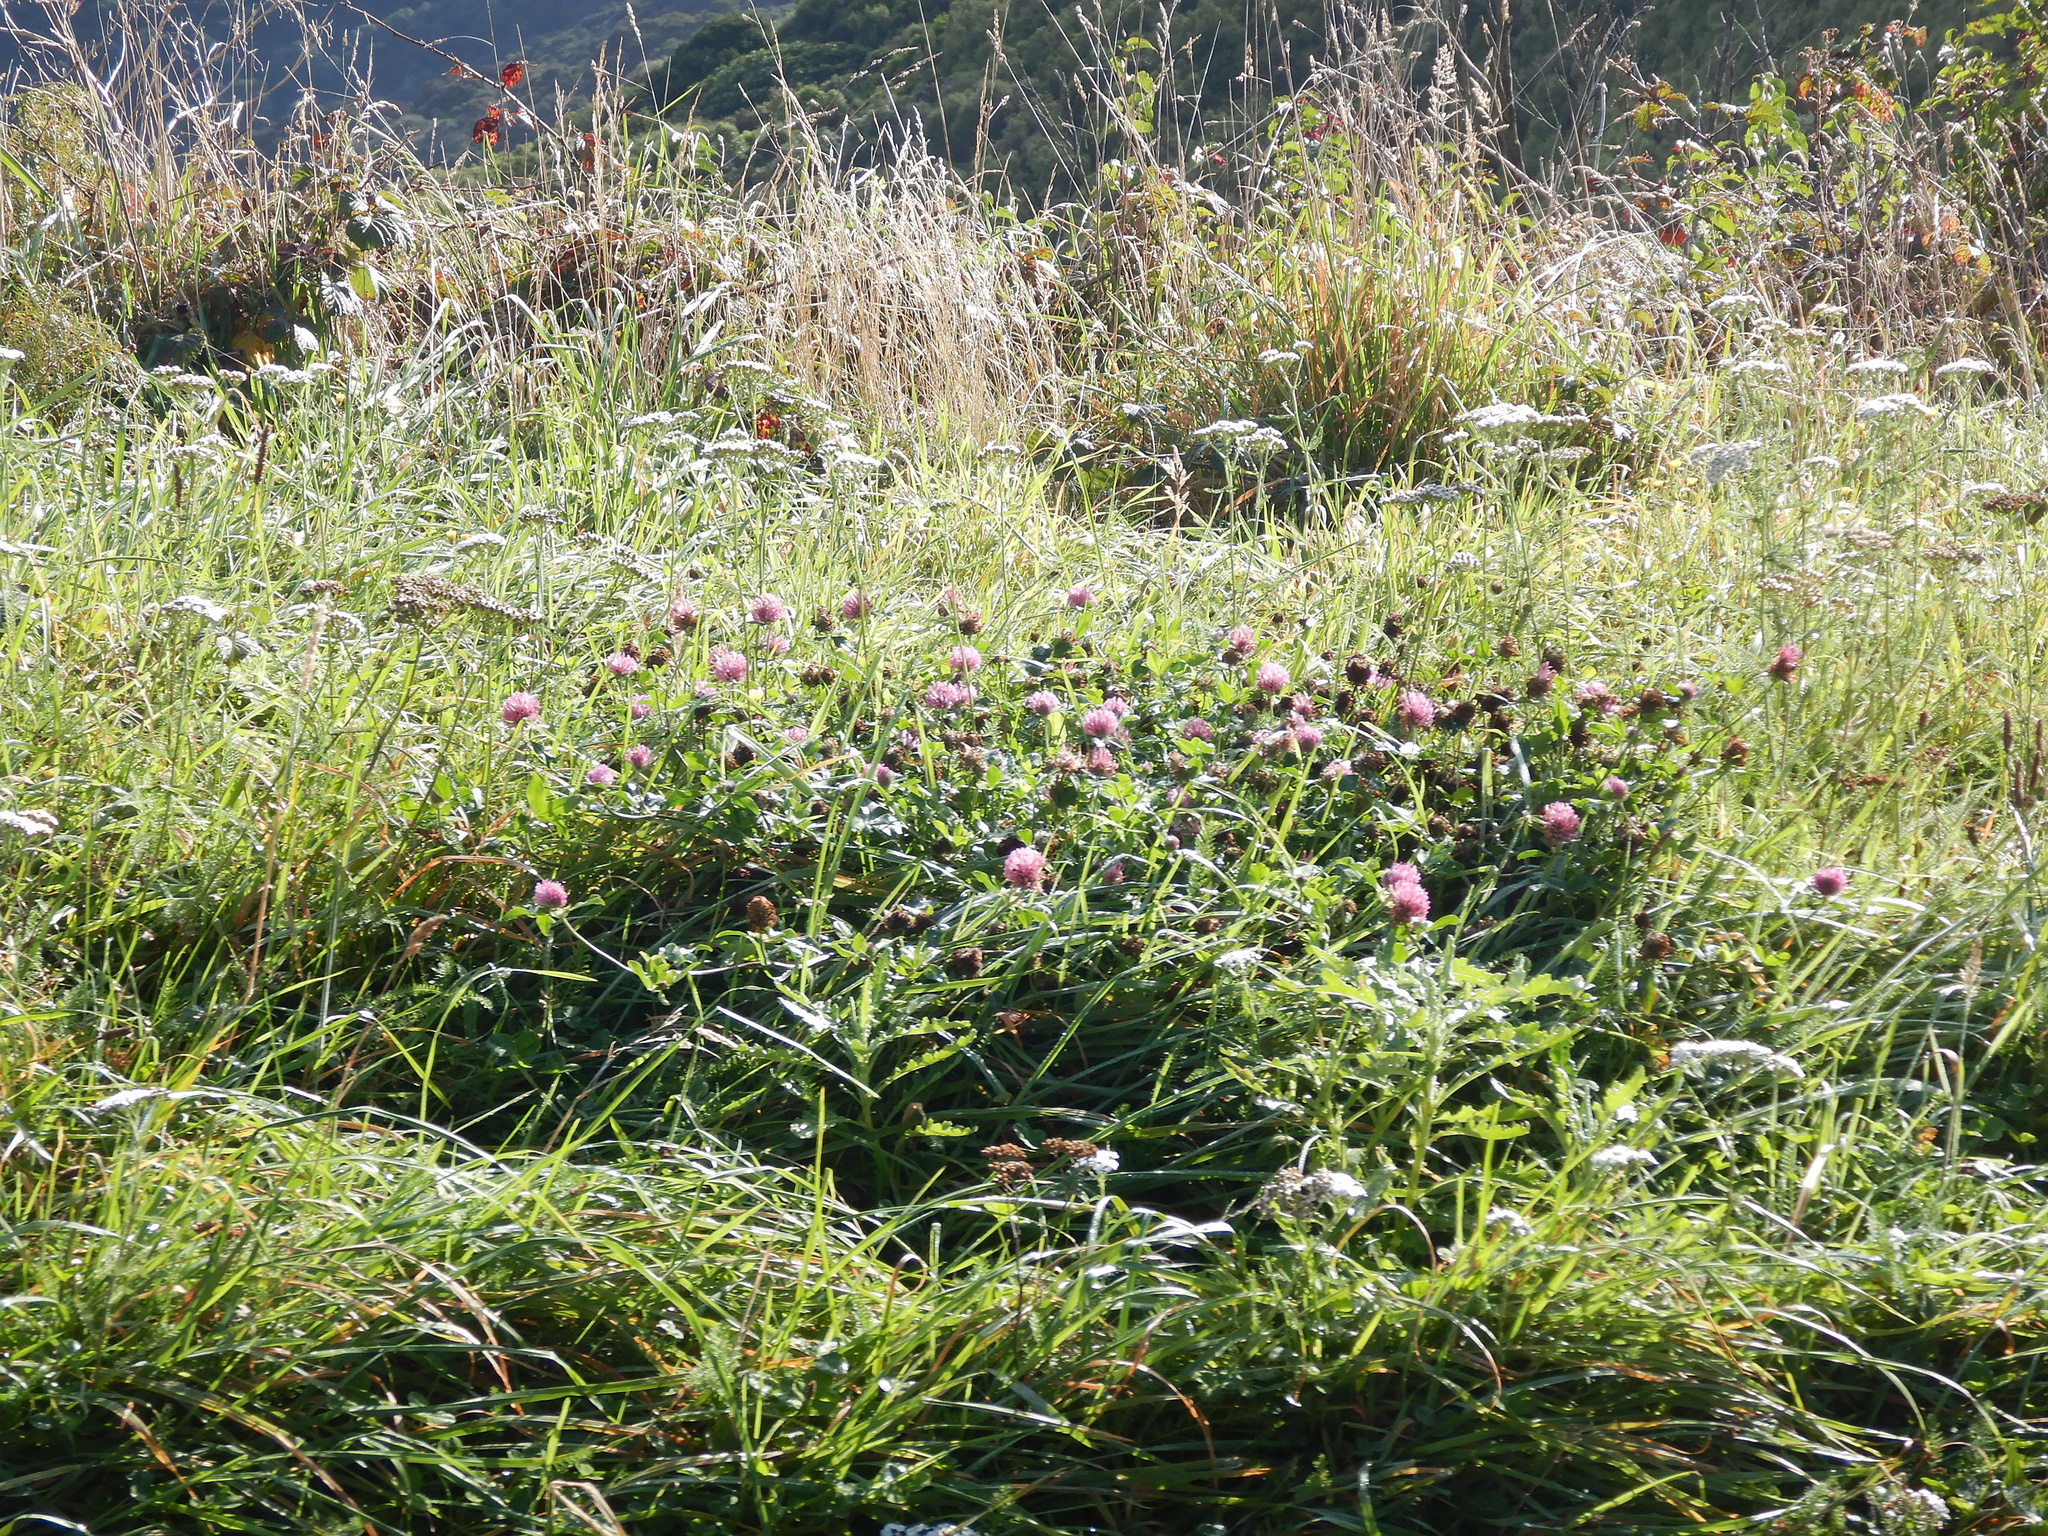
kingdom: Plantae
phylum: Tracheophyta
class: Magnoliopsida
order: Fabales
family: Fabaceae
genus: Trifolium
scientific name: Trifolium pratense
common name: Red clover
